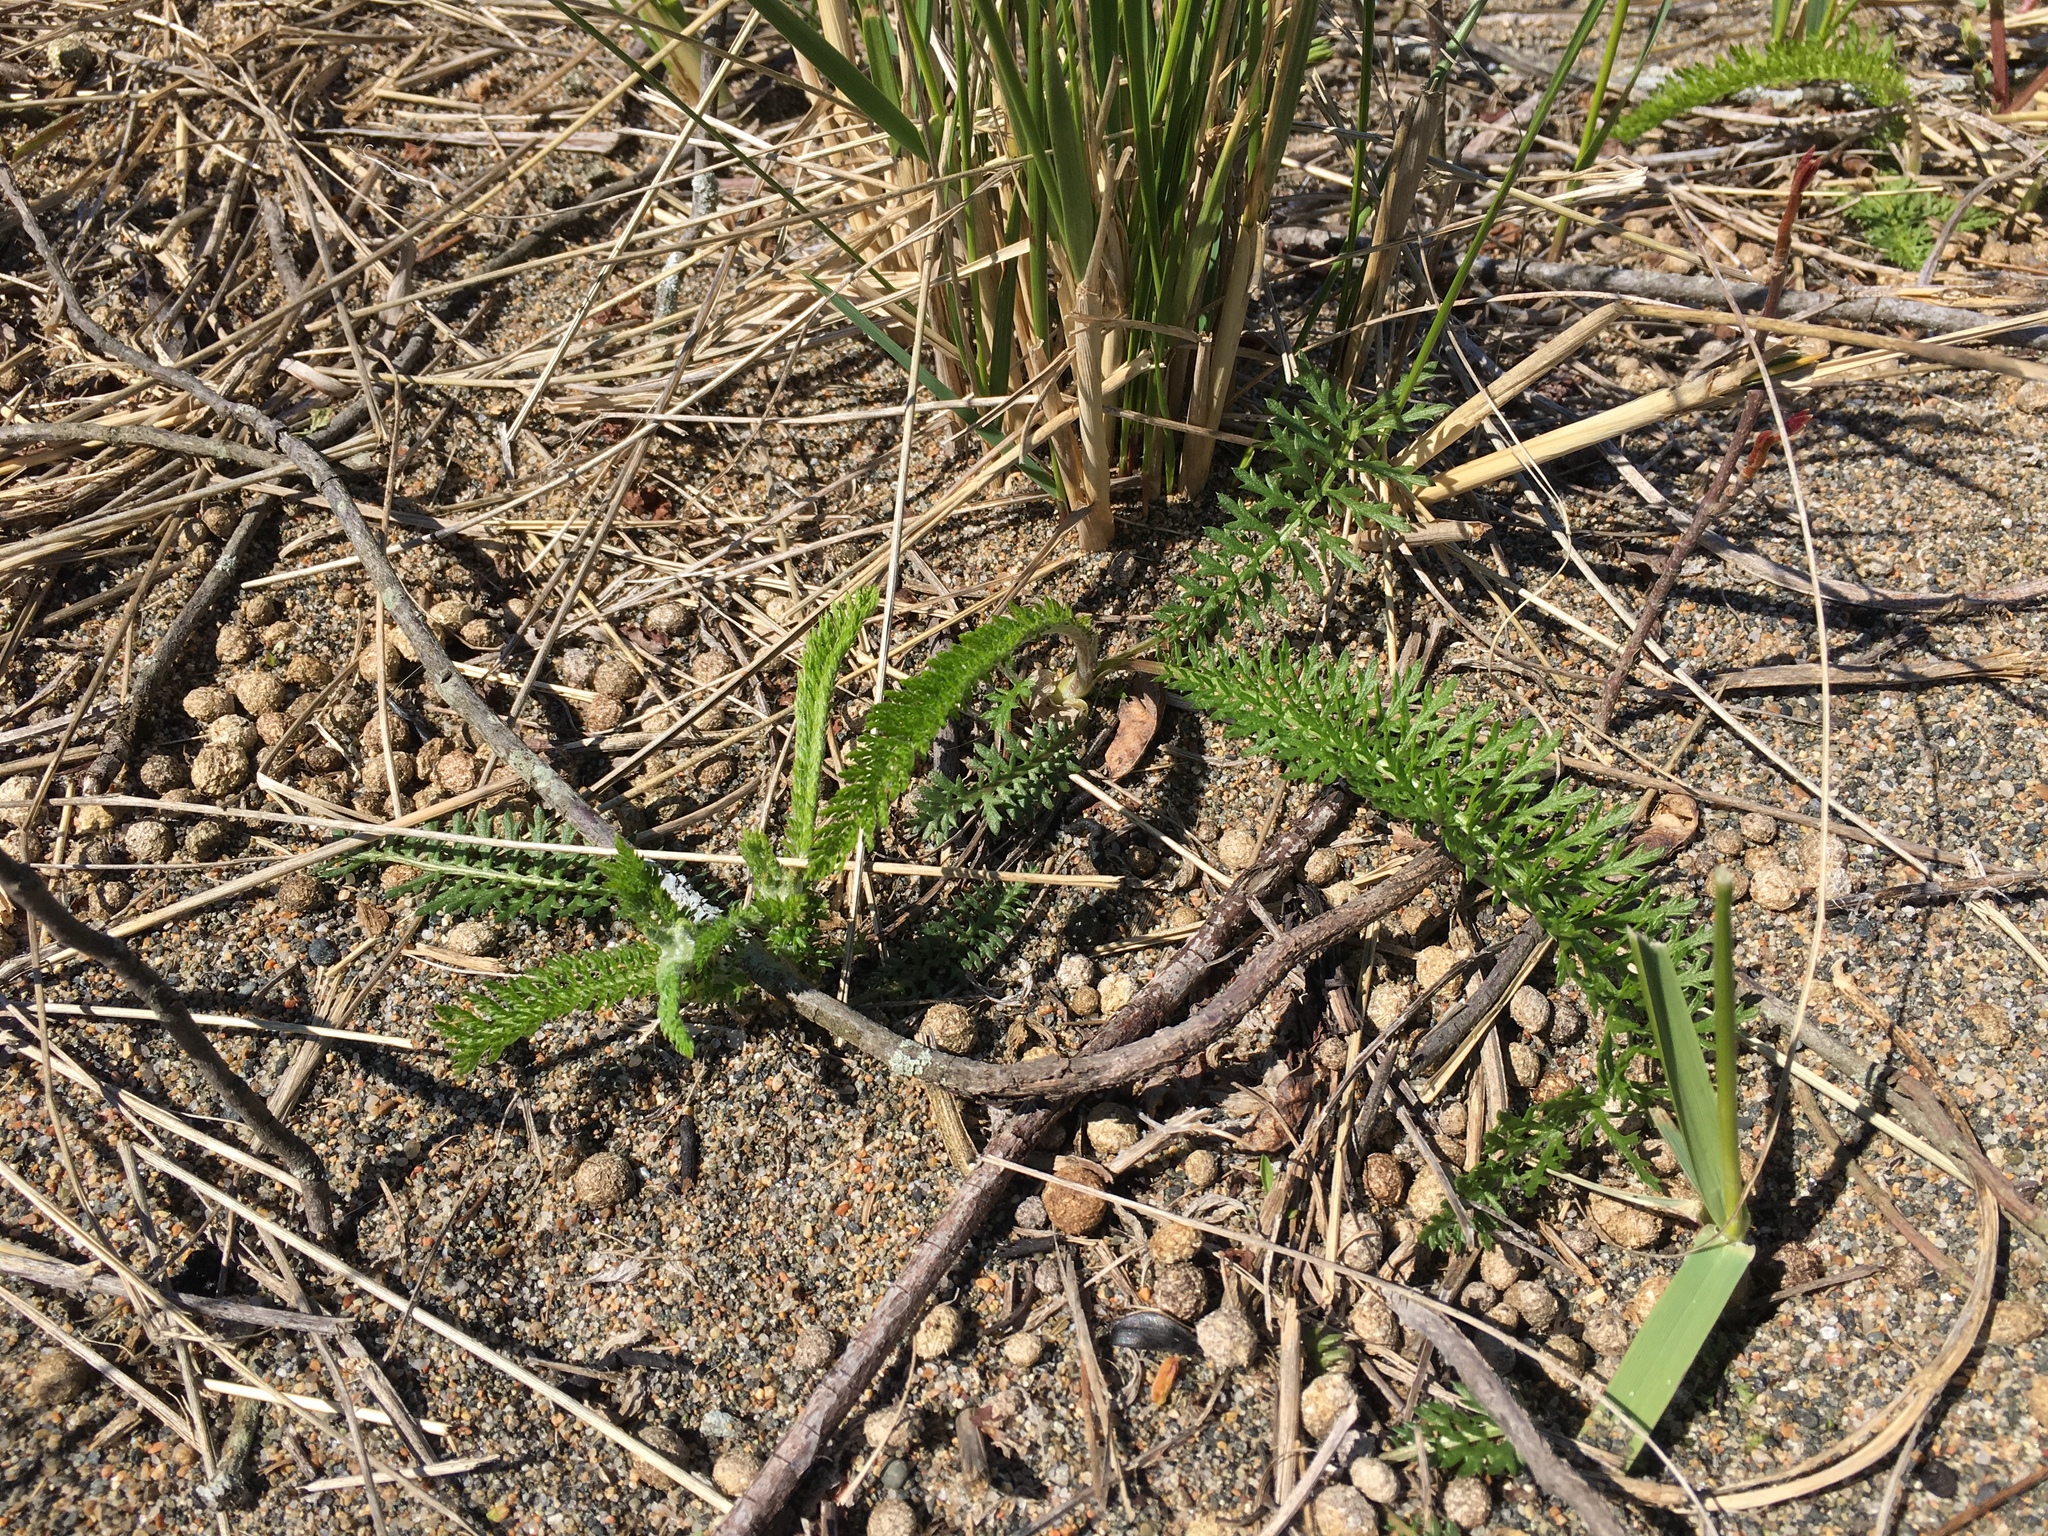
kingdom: Plantae
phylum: Tracheophyta
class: Magnoliopsida
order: Asterales
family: Asteraceae
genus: Achillea
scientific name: Achillea millefolium
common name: Yarrow
